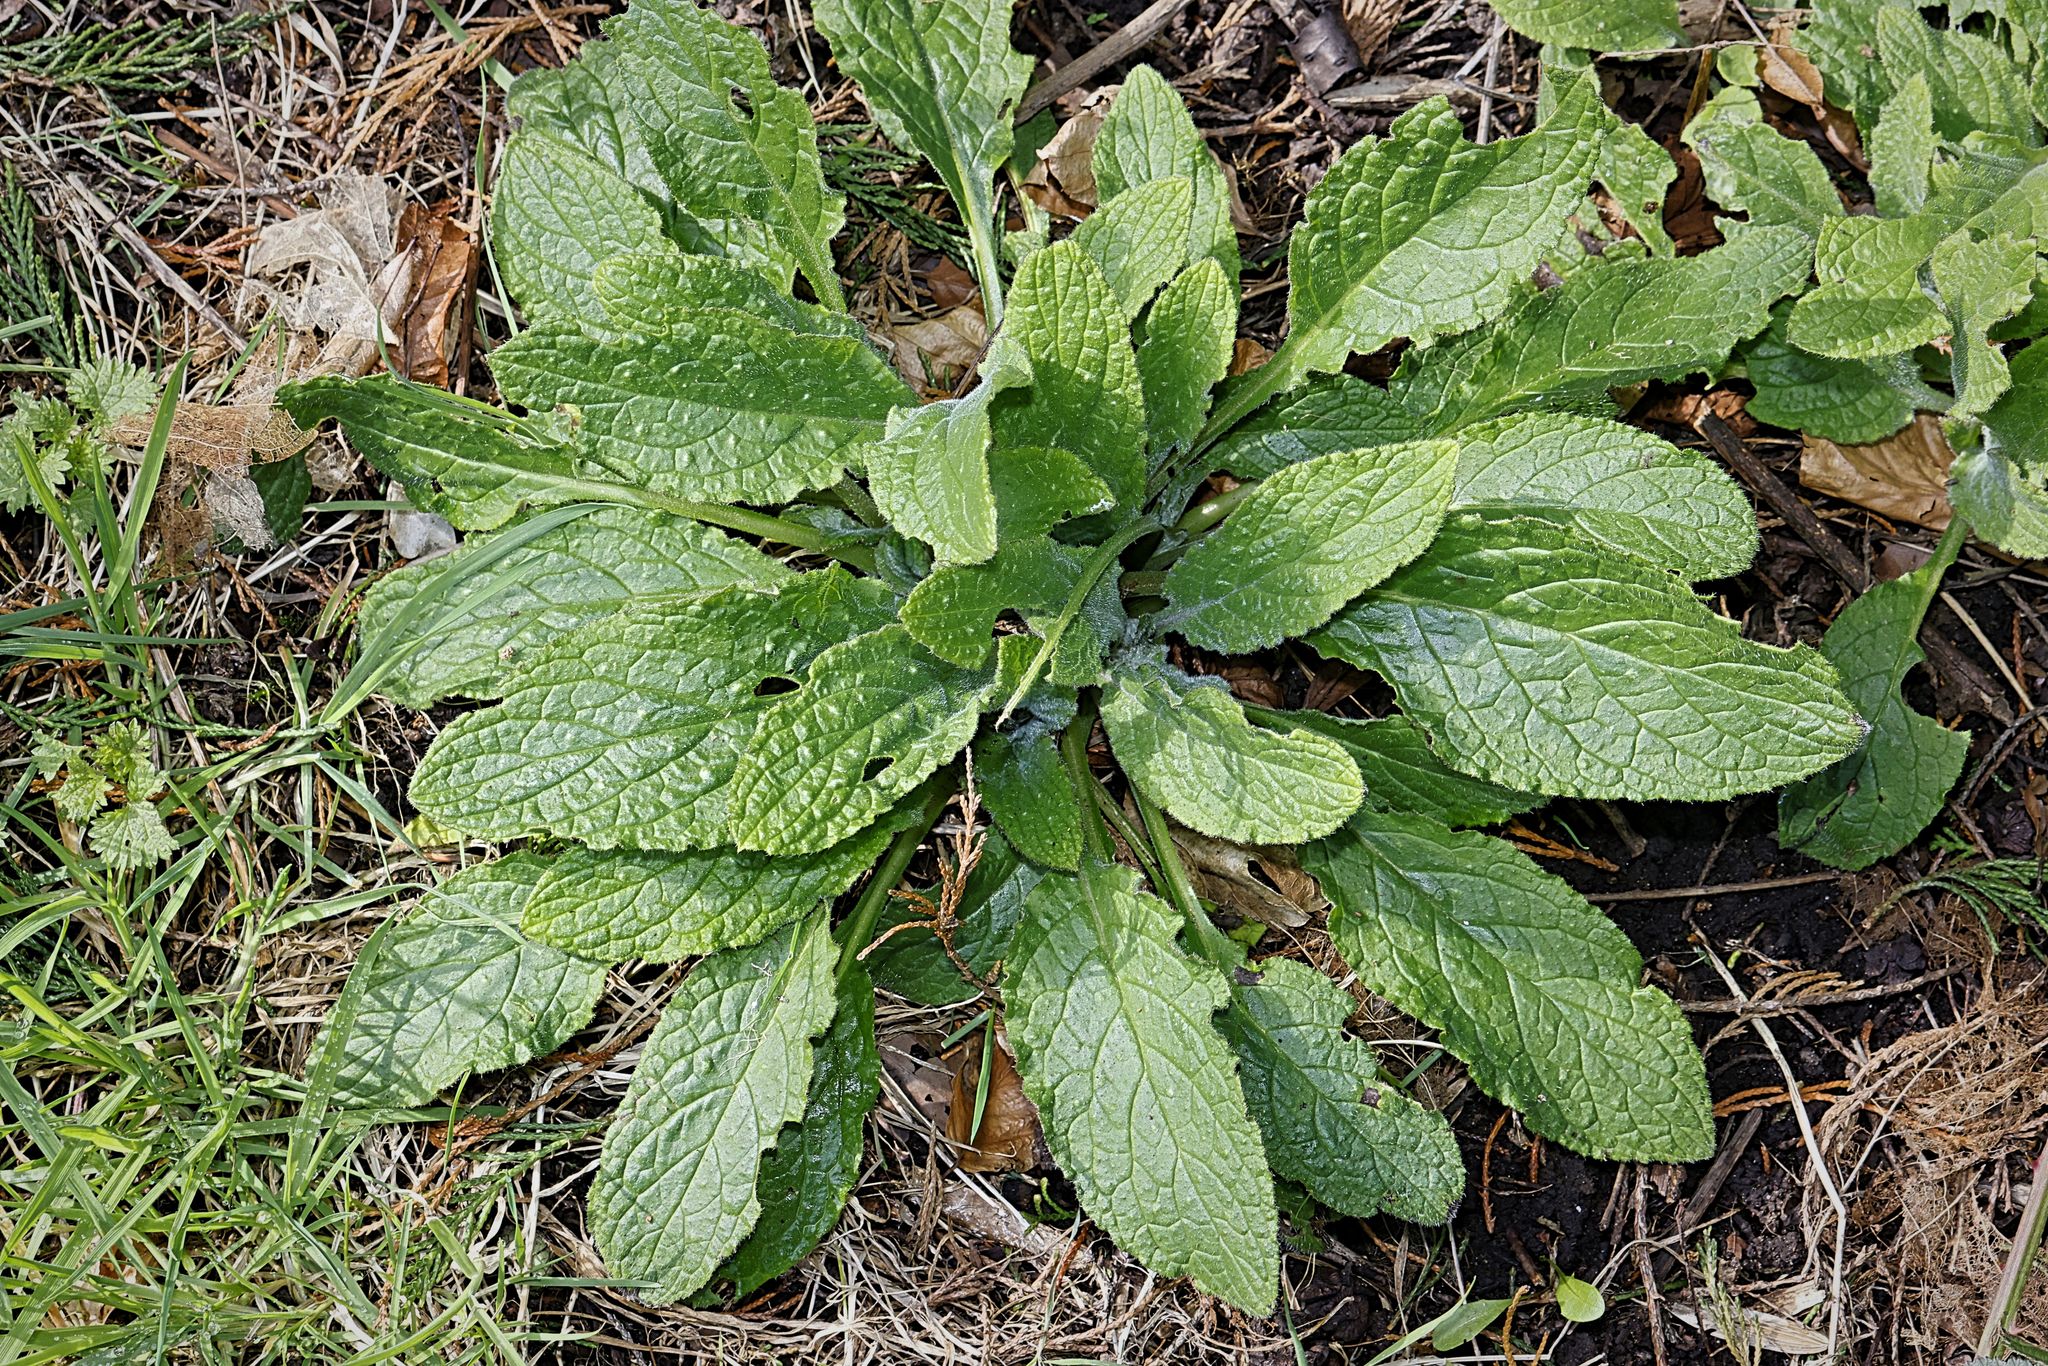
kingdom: Plantae
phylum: Tracheophyta
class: Magnoliopsida
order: Lamiales
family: Plantaginaceae
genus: Digitalis
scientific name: Digitalis purpurea
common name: Foxglove
